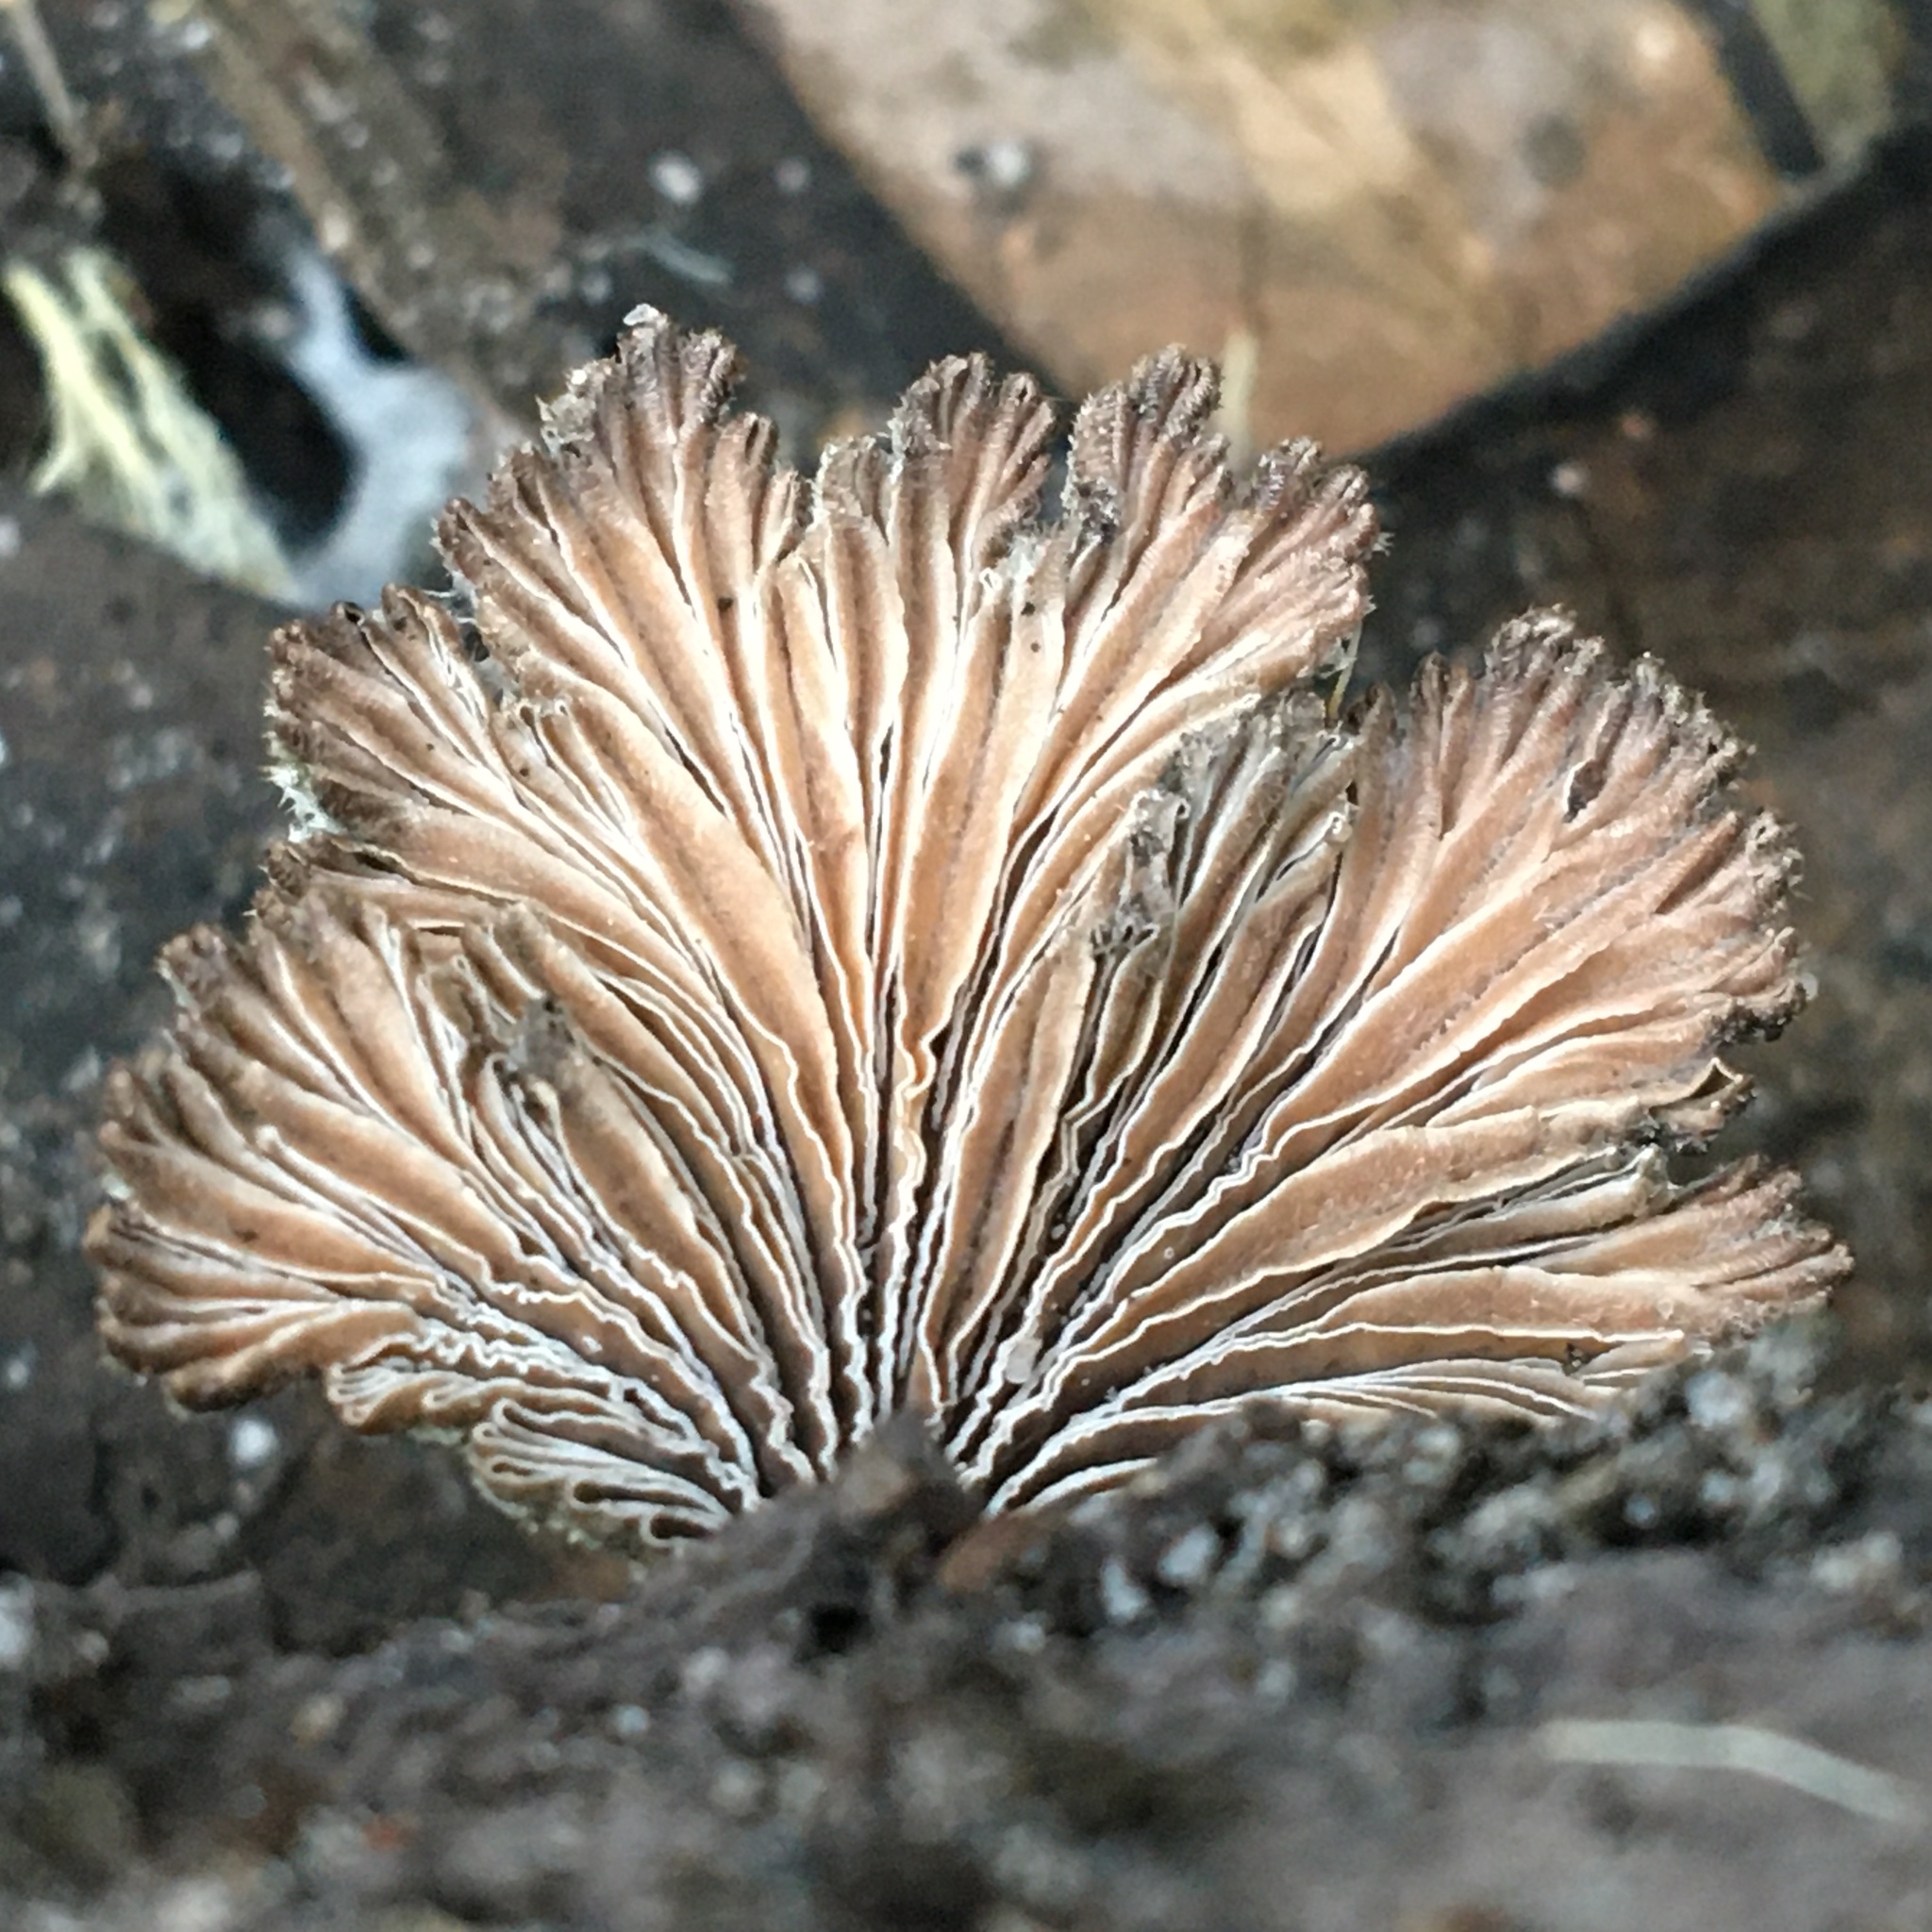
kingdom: Fungi
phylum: Basidiomycota
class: Agaricomycetes
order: Agaricales
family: Schizophyllaceae
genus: Schizophyllum
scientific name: Schizophyllum commune
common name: Common porecrust
